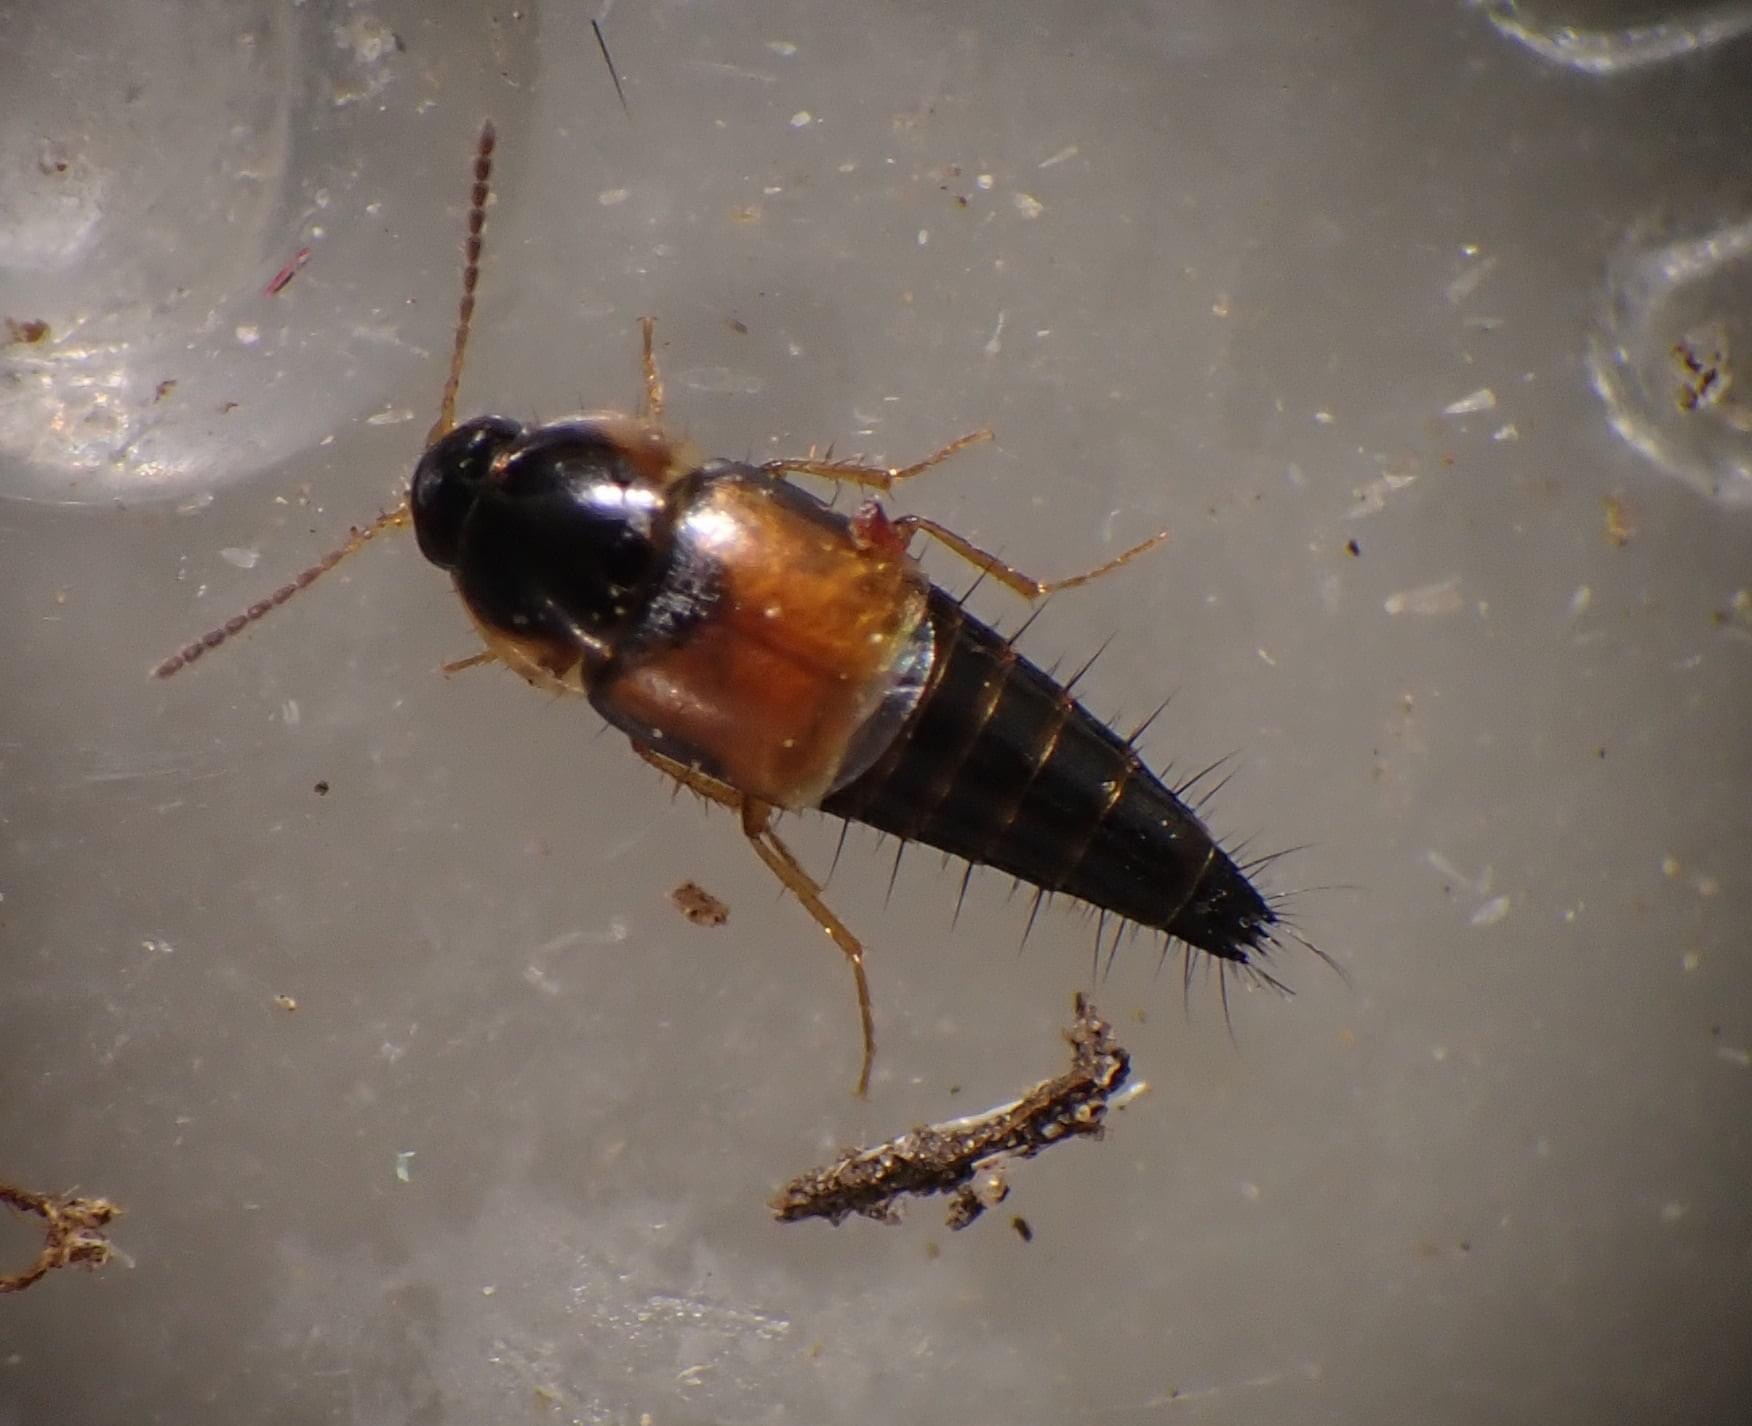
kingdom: Animalia
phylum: Arthropoda
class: Insecta
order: Coleoptera
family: Staphylinidae
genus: Tachyporus
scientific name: Tachyporus hypnorum
